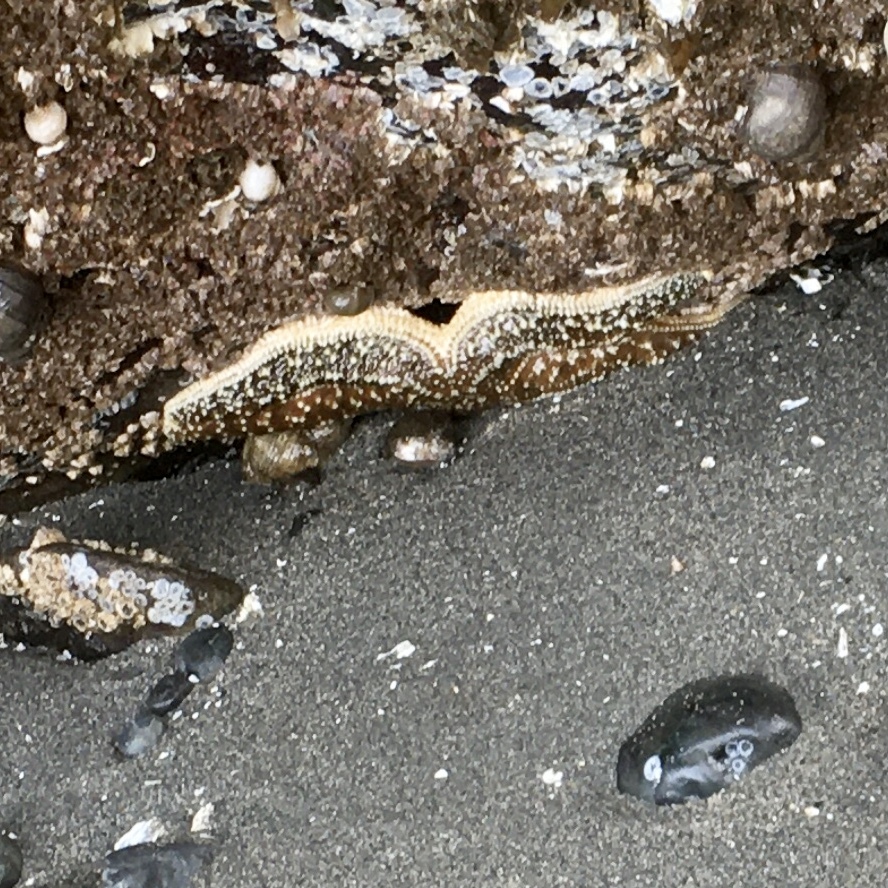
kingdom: Animalia
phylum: Echinodermata
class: Asteroidea
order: Forcipulatida
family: Asteriidae
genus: Evasterias
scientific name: Evasterias troschelii
